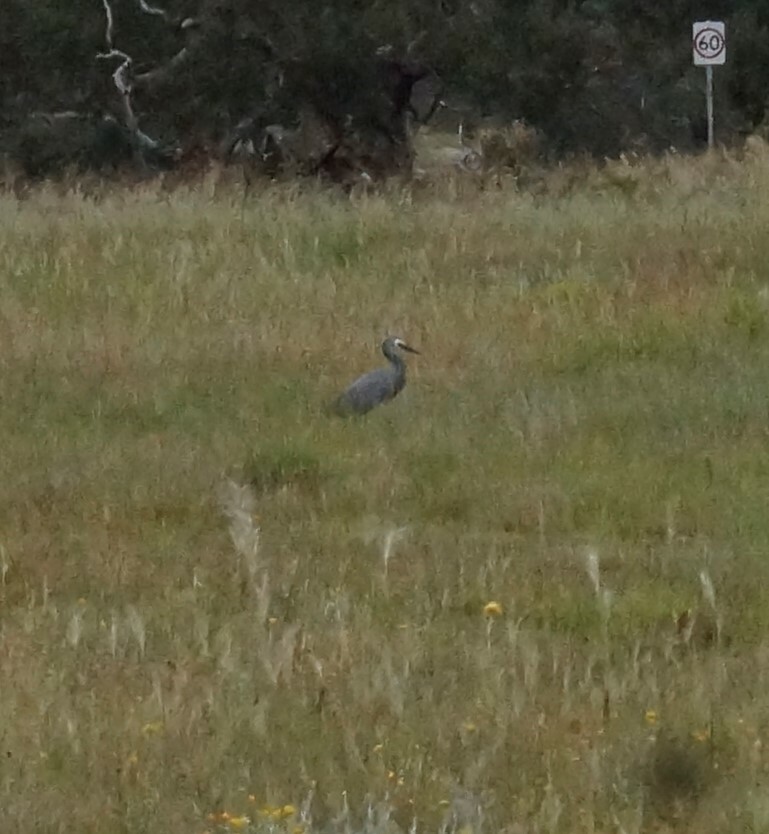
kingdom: Animalia
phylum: Chordata
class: Aves
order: Pelecaniformes
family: Ardeidae
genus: Egretta
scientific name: Egretta novaehollandiae
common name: White-faced heron
